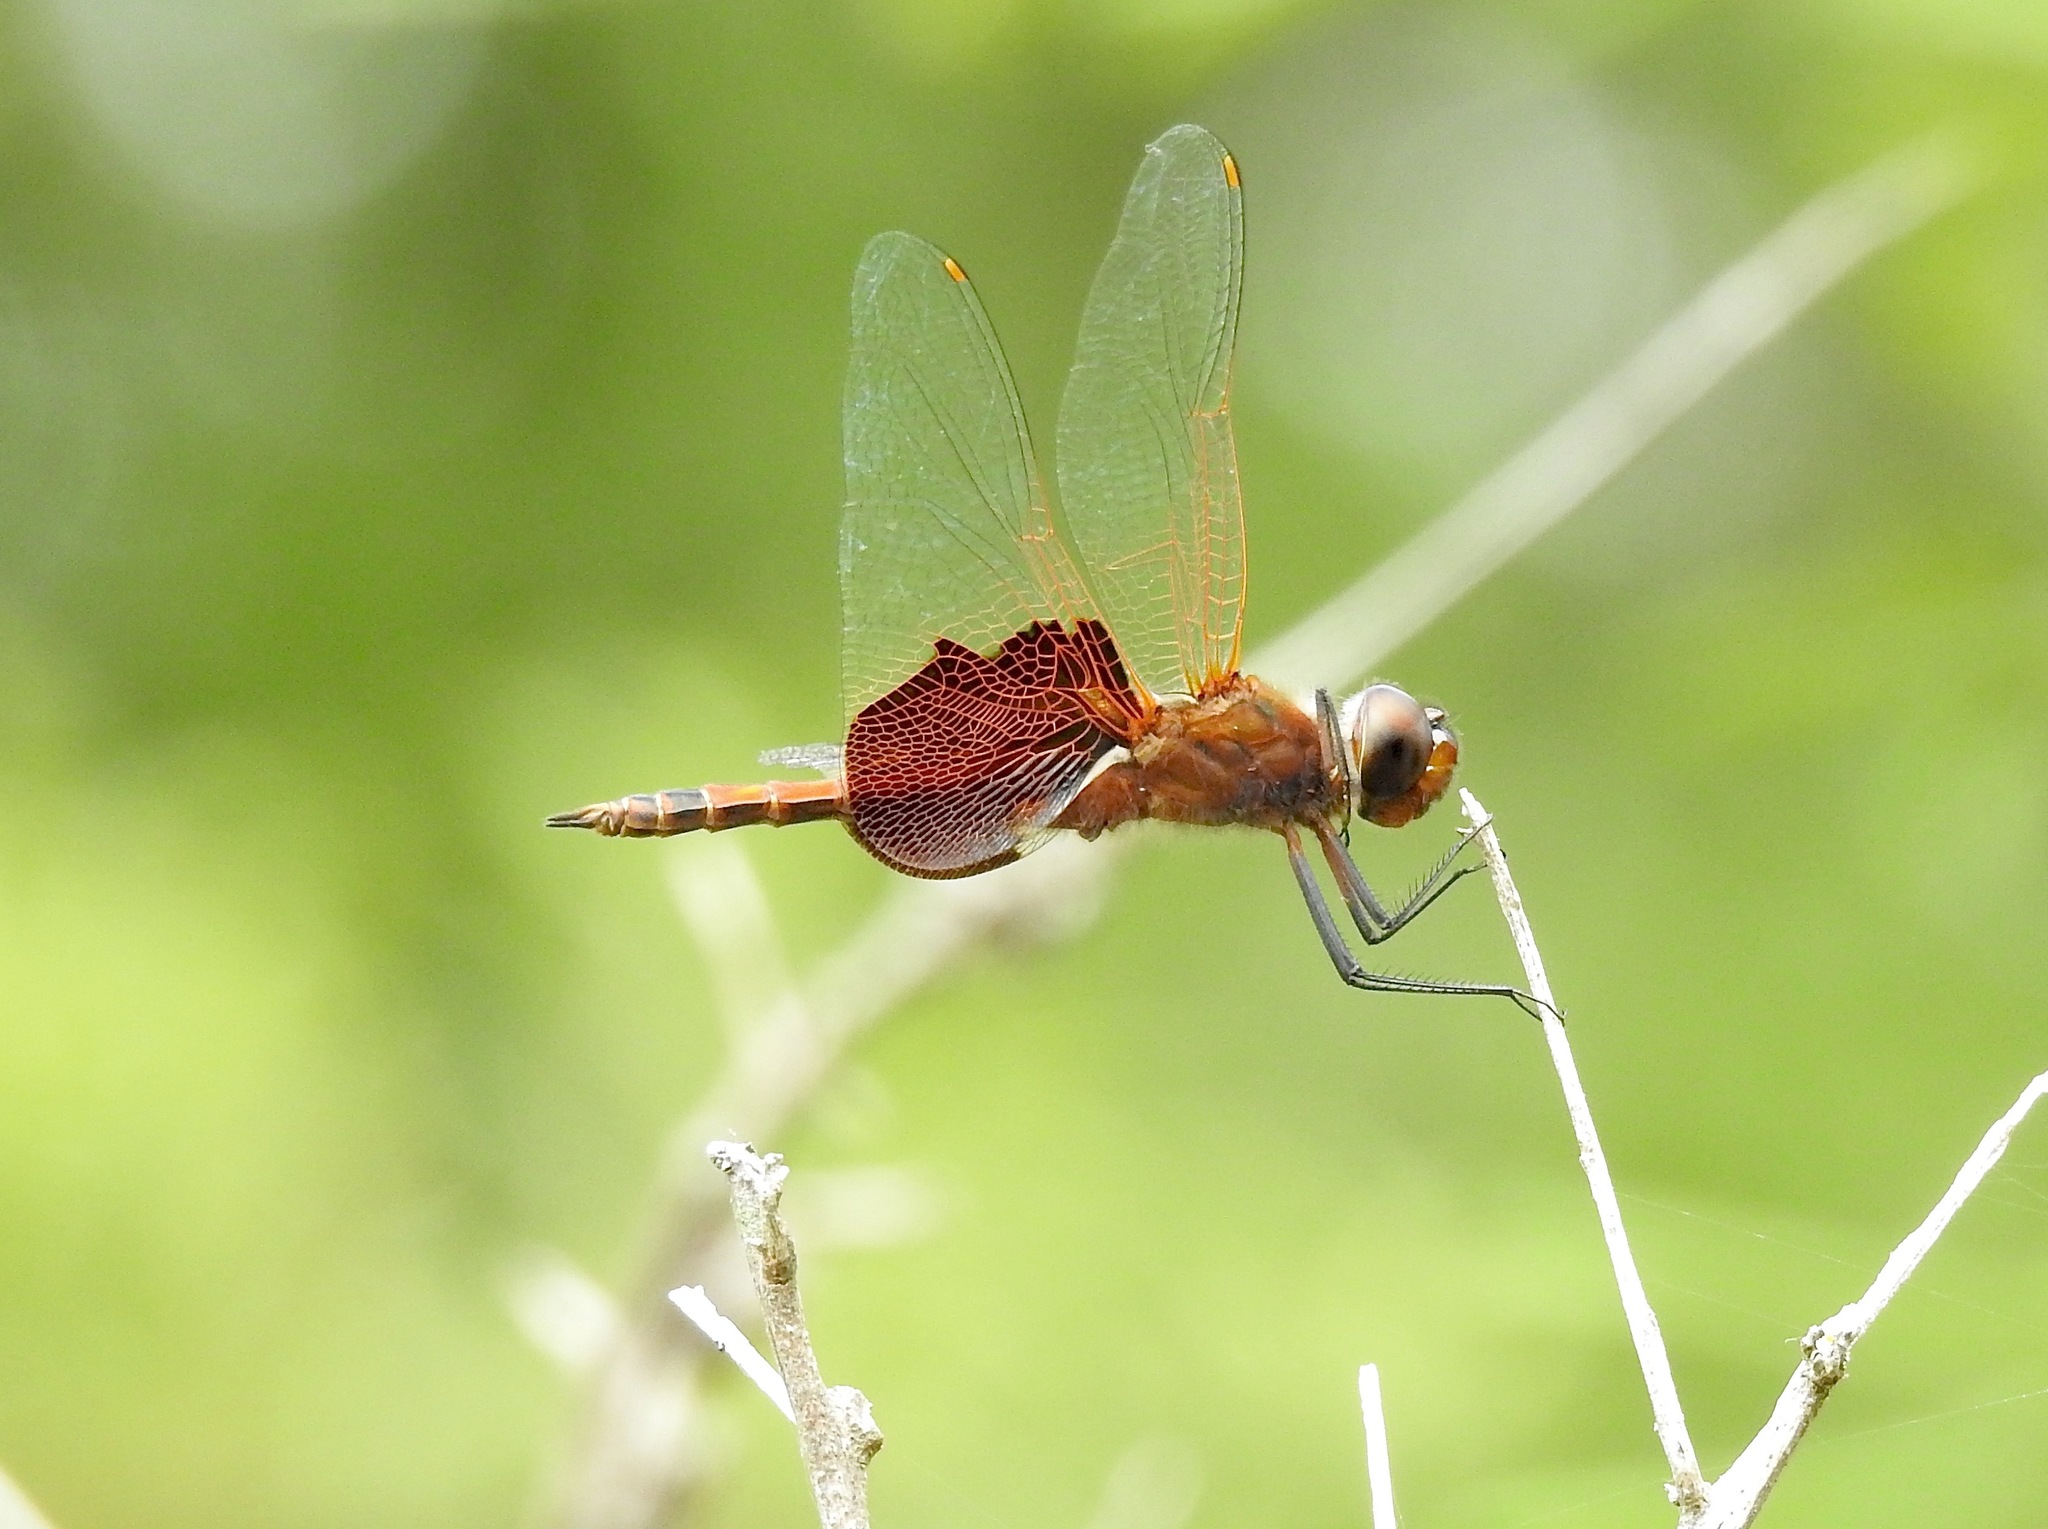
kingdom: Animalia
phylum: Arthropoda
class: Insecta
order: Odonata
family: Libellulidae
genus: Tramea
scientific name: Tramea carolina
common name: Carolina saddlebags
